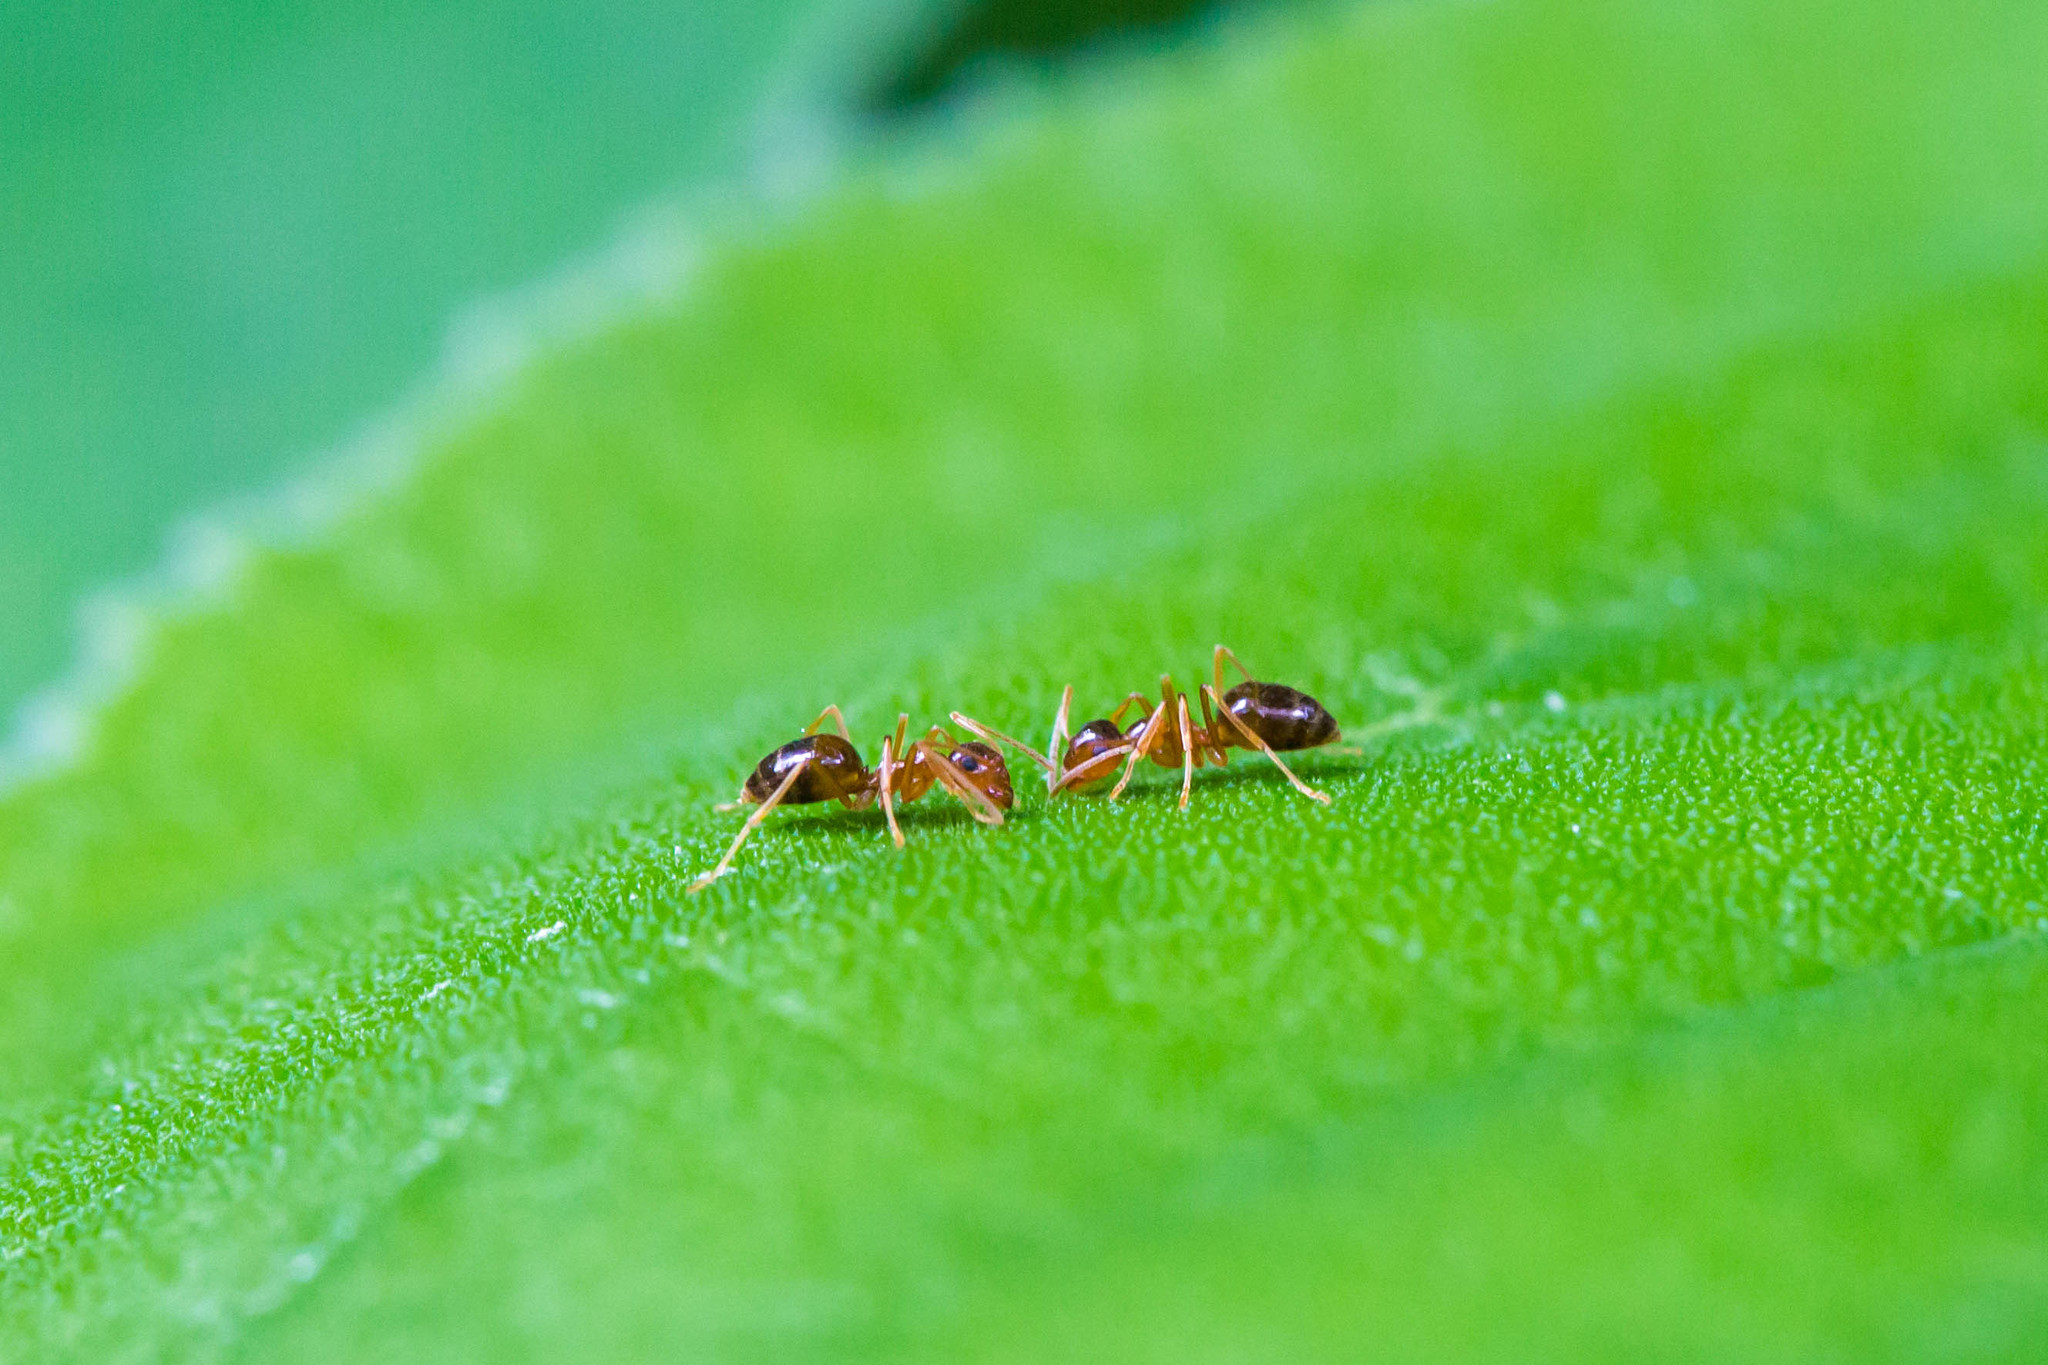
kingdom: Animalia
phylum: Arthropoda
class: Insecta
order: Hymenoptera
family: Formicidae
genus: Prenolepis
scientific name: Prenolepis imparis
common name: Small honey ant
